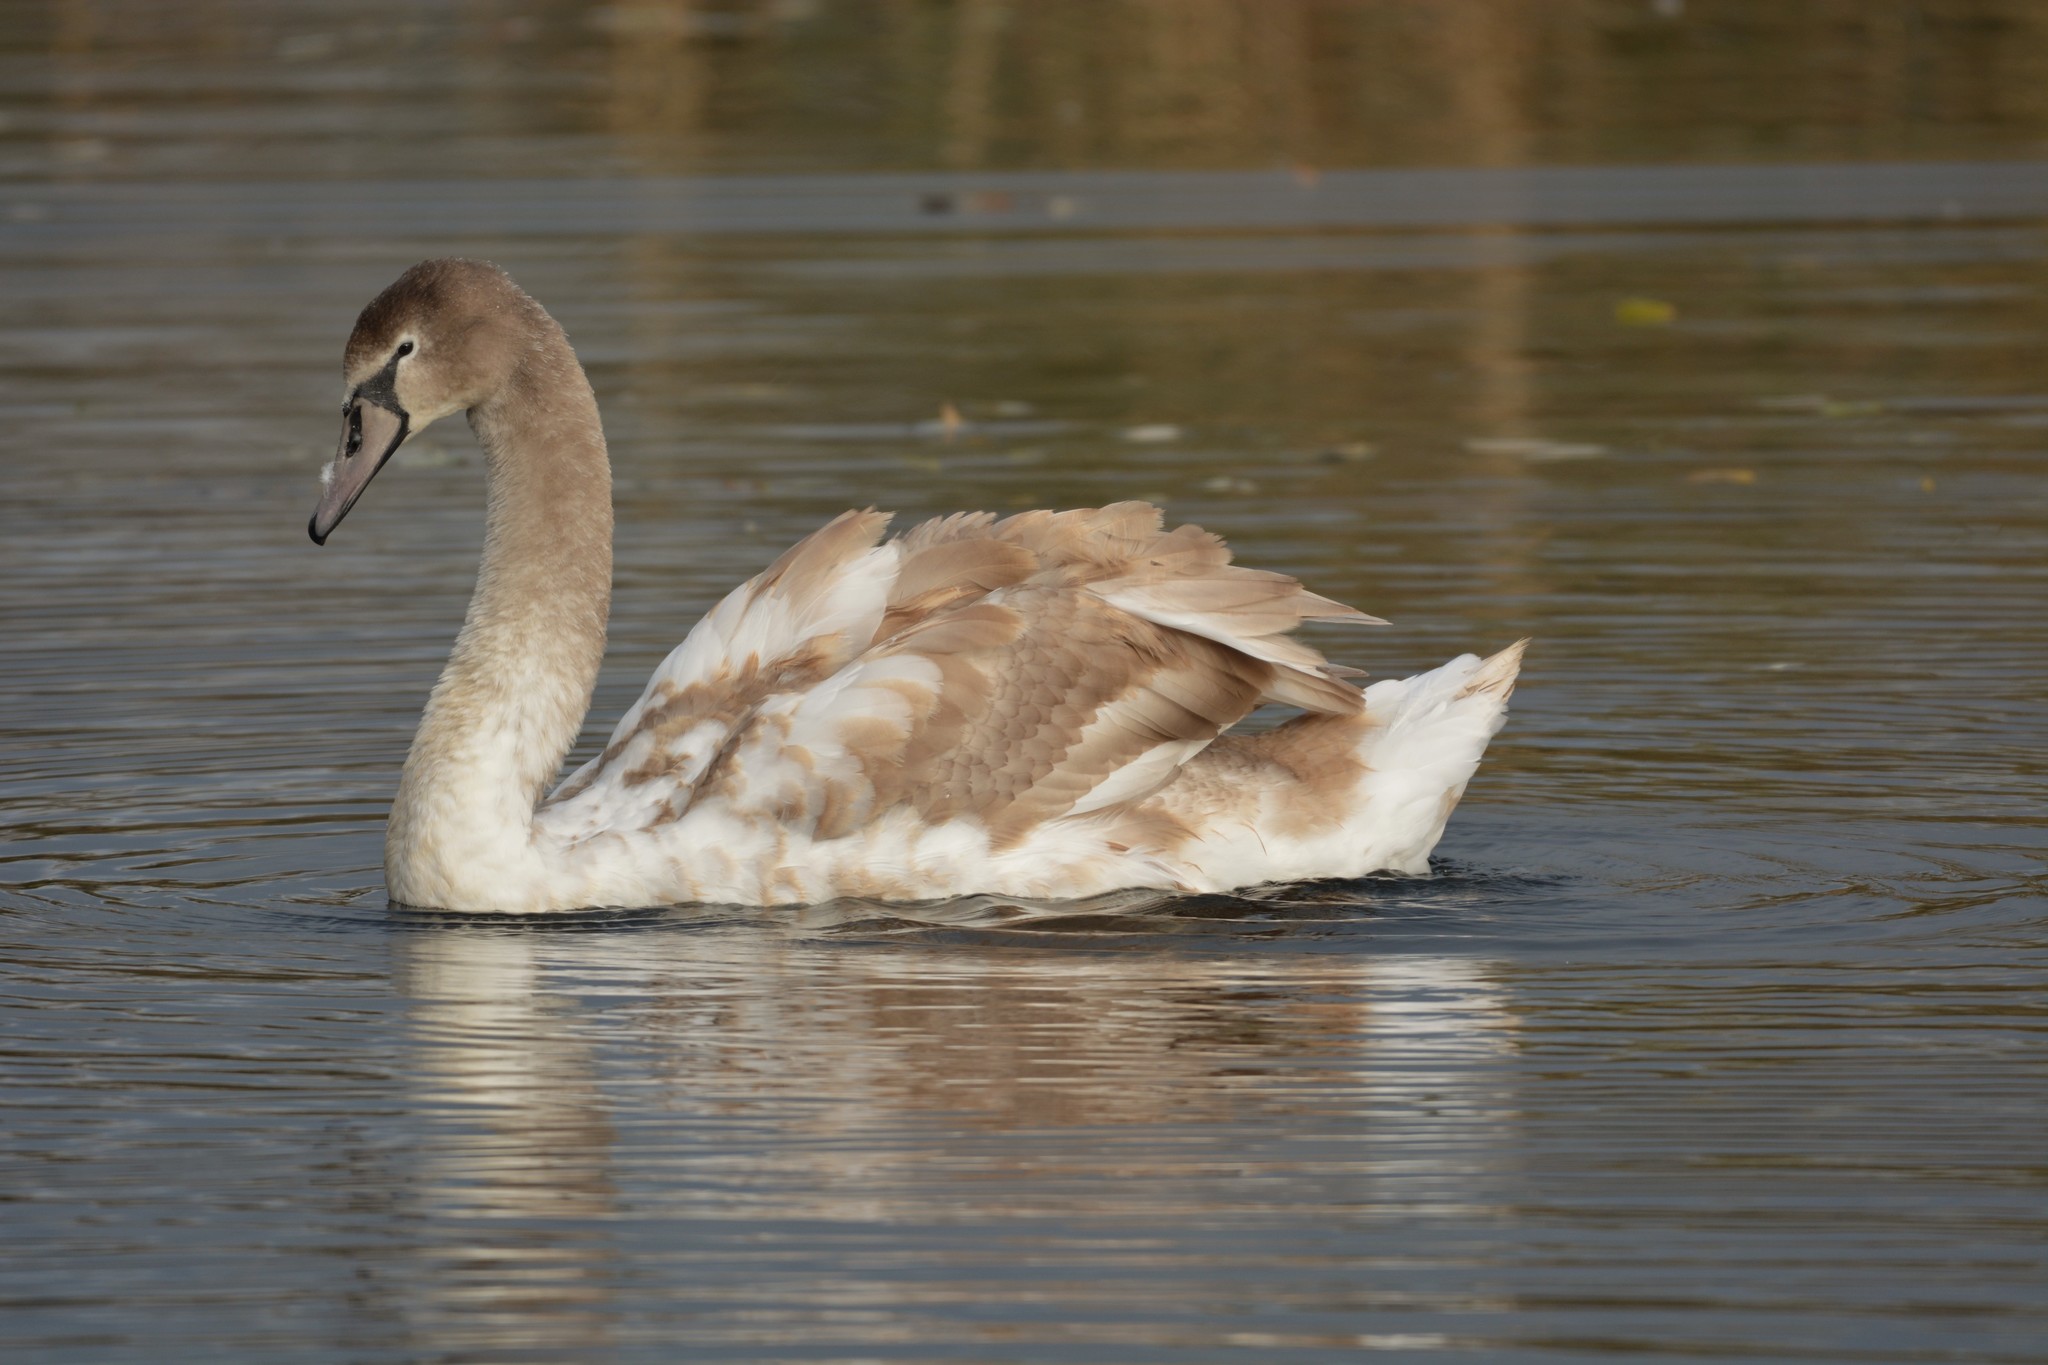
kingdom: Animalia
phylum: Chordata
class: Aves
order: Anseriformes
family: Anatidae
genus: Cygnus
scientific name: Cygnus olor
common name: Mute swan
